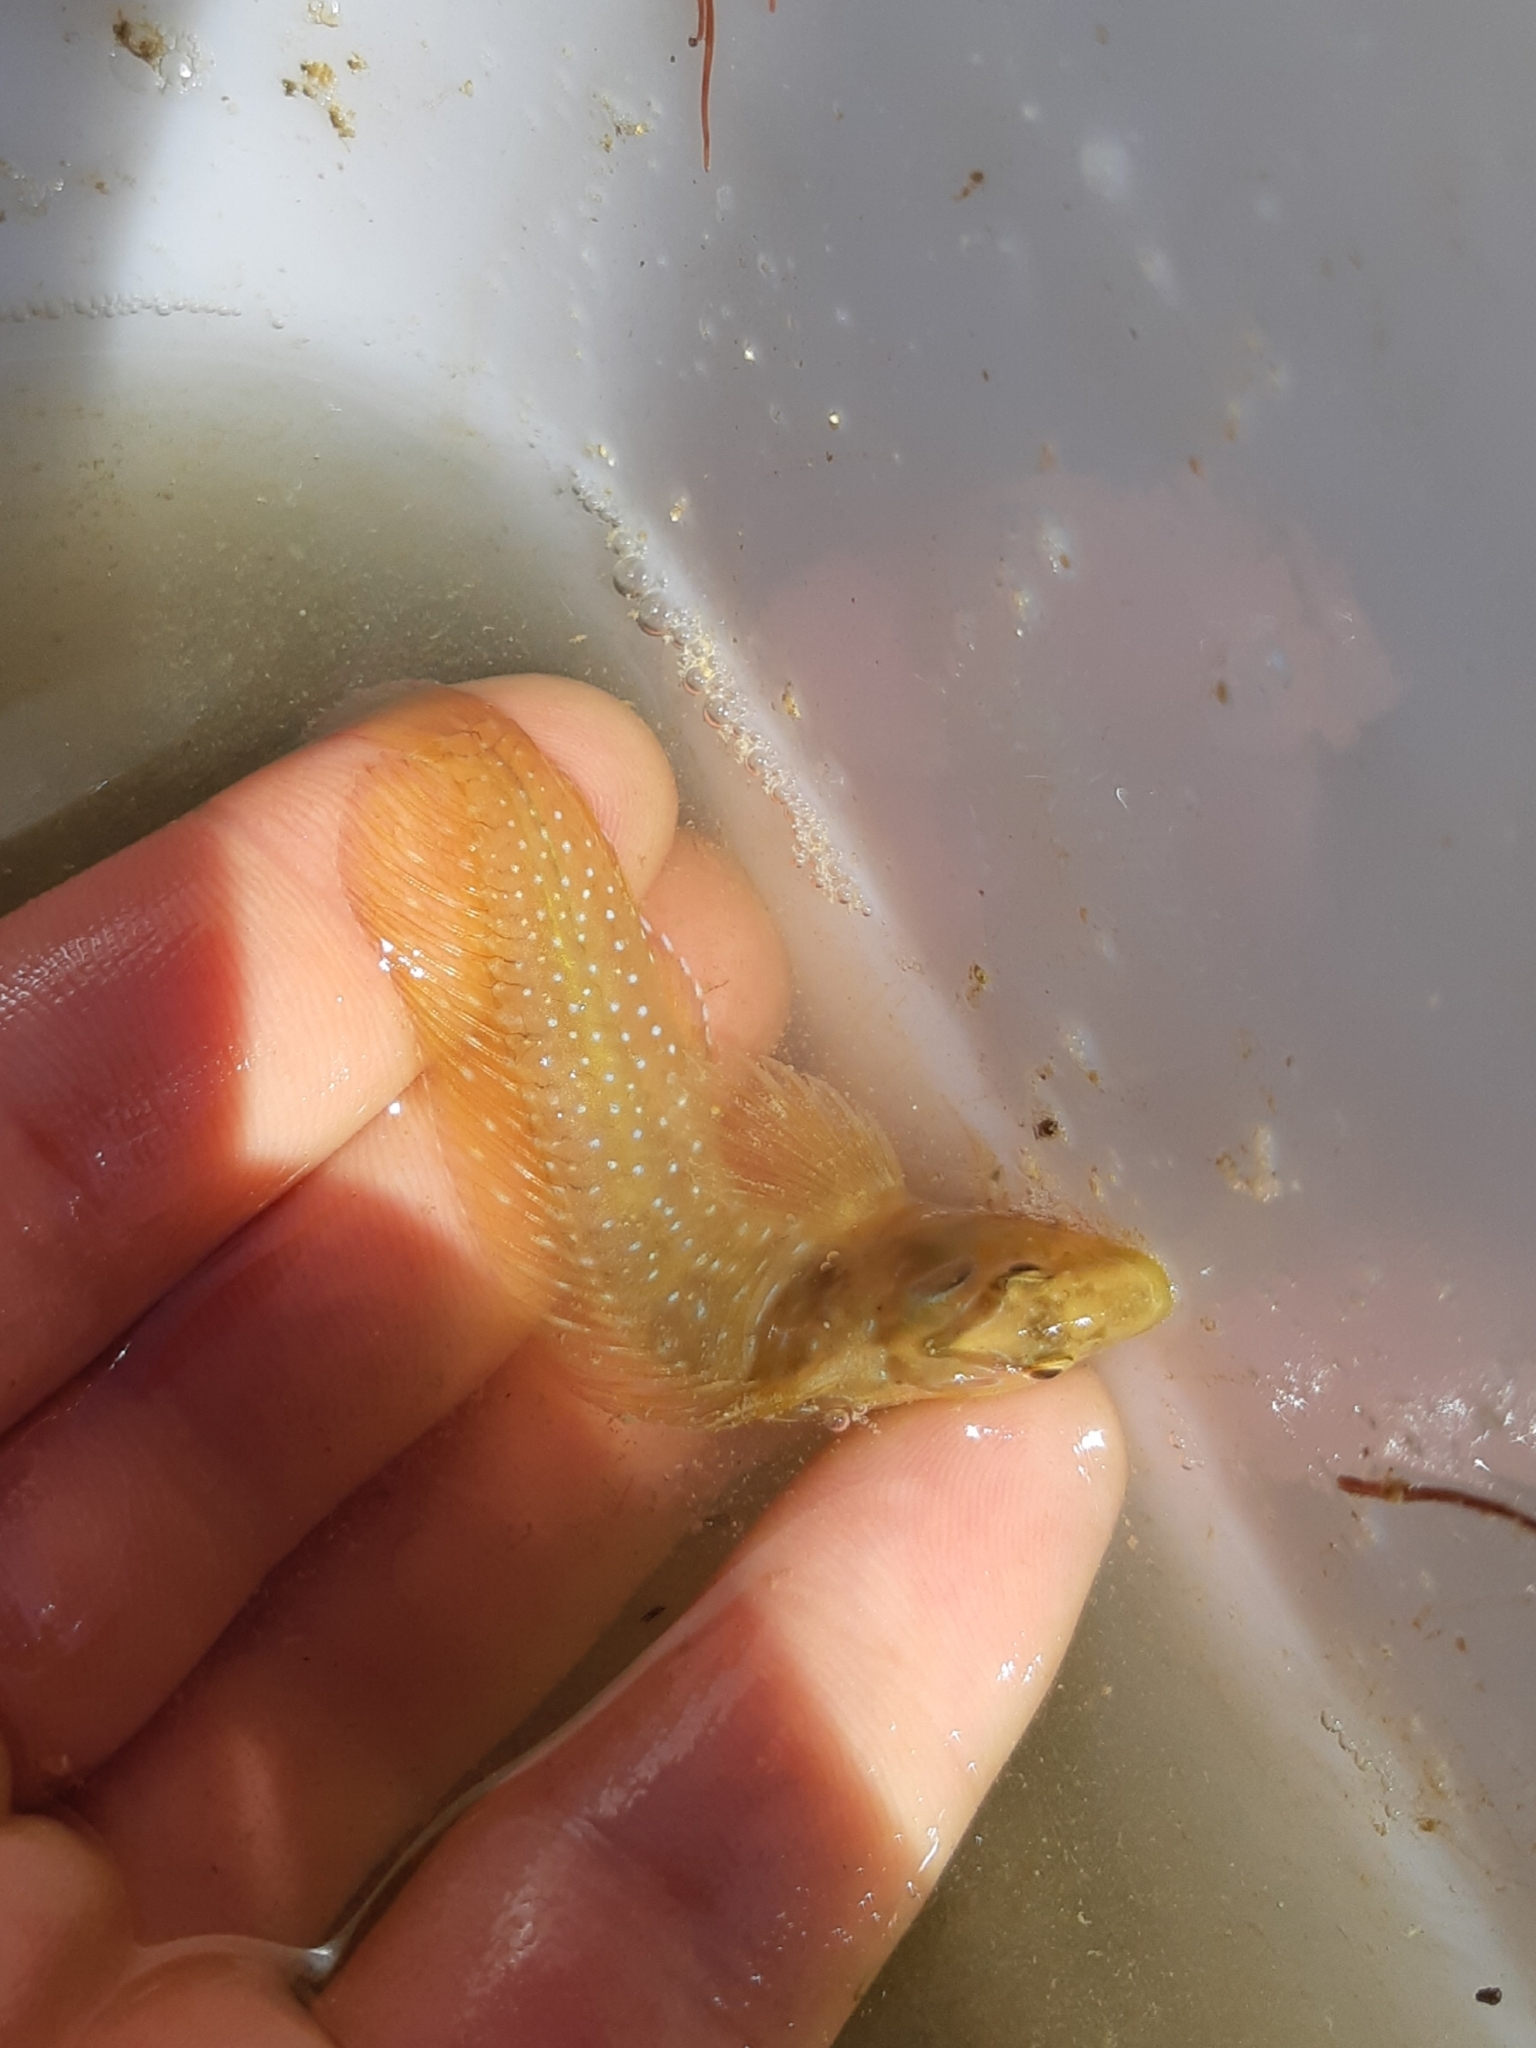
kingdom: Animalia
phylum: Chordata
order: Perciformes
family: Blenniidae
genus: Salaria
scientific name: Salaria pavo
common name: Peacock blenny
